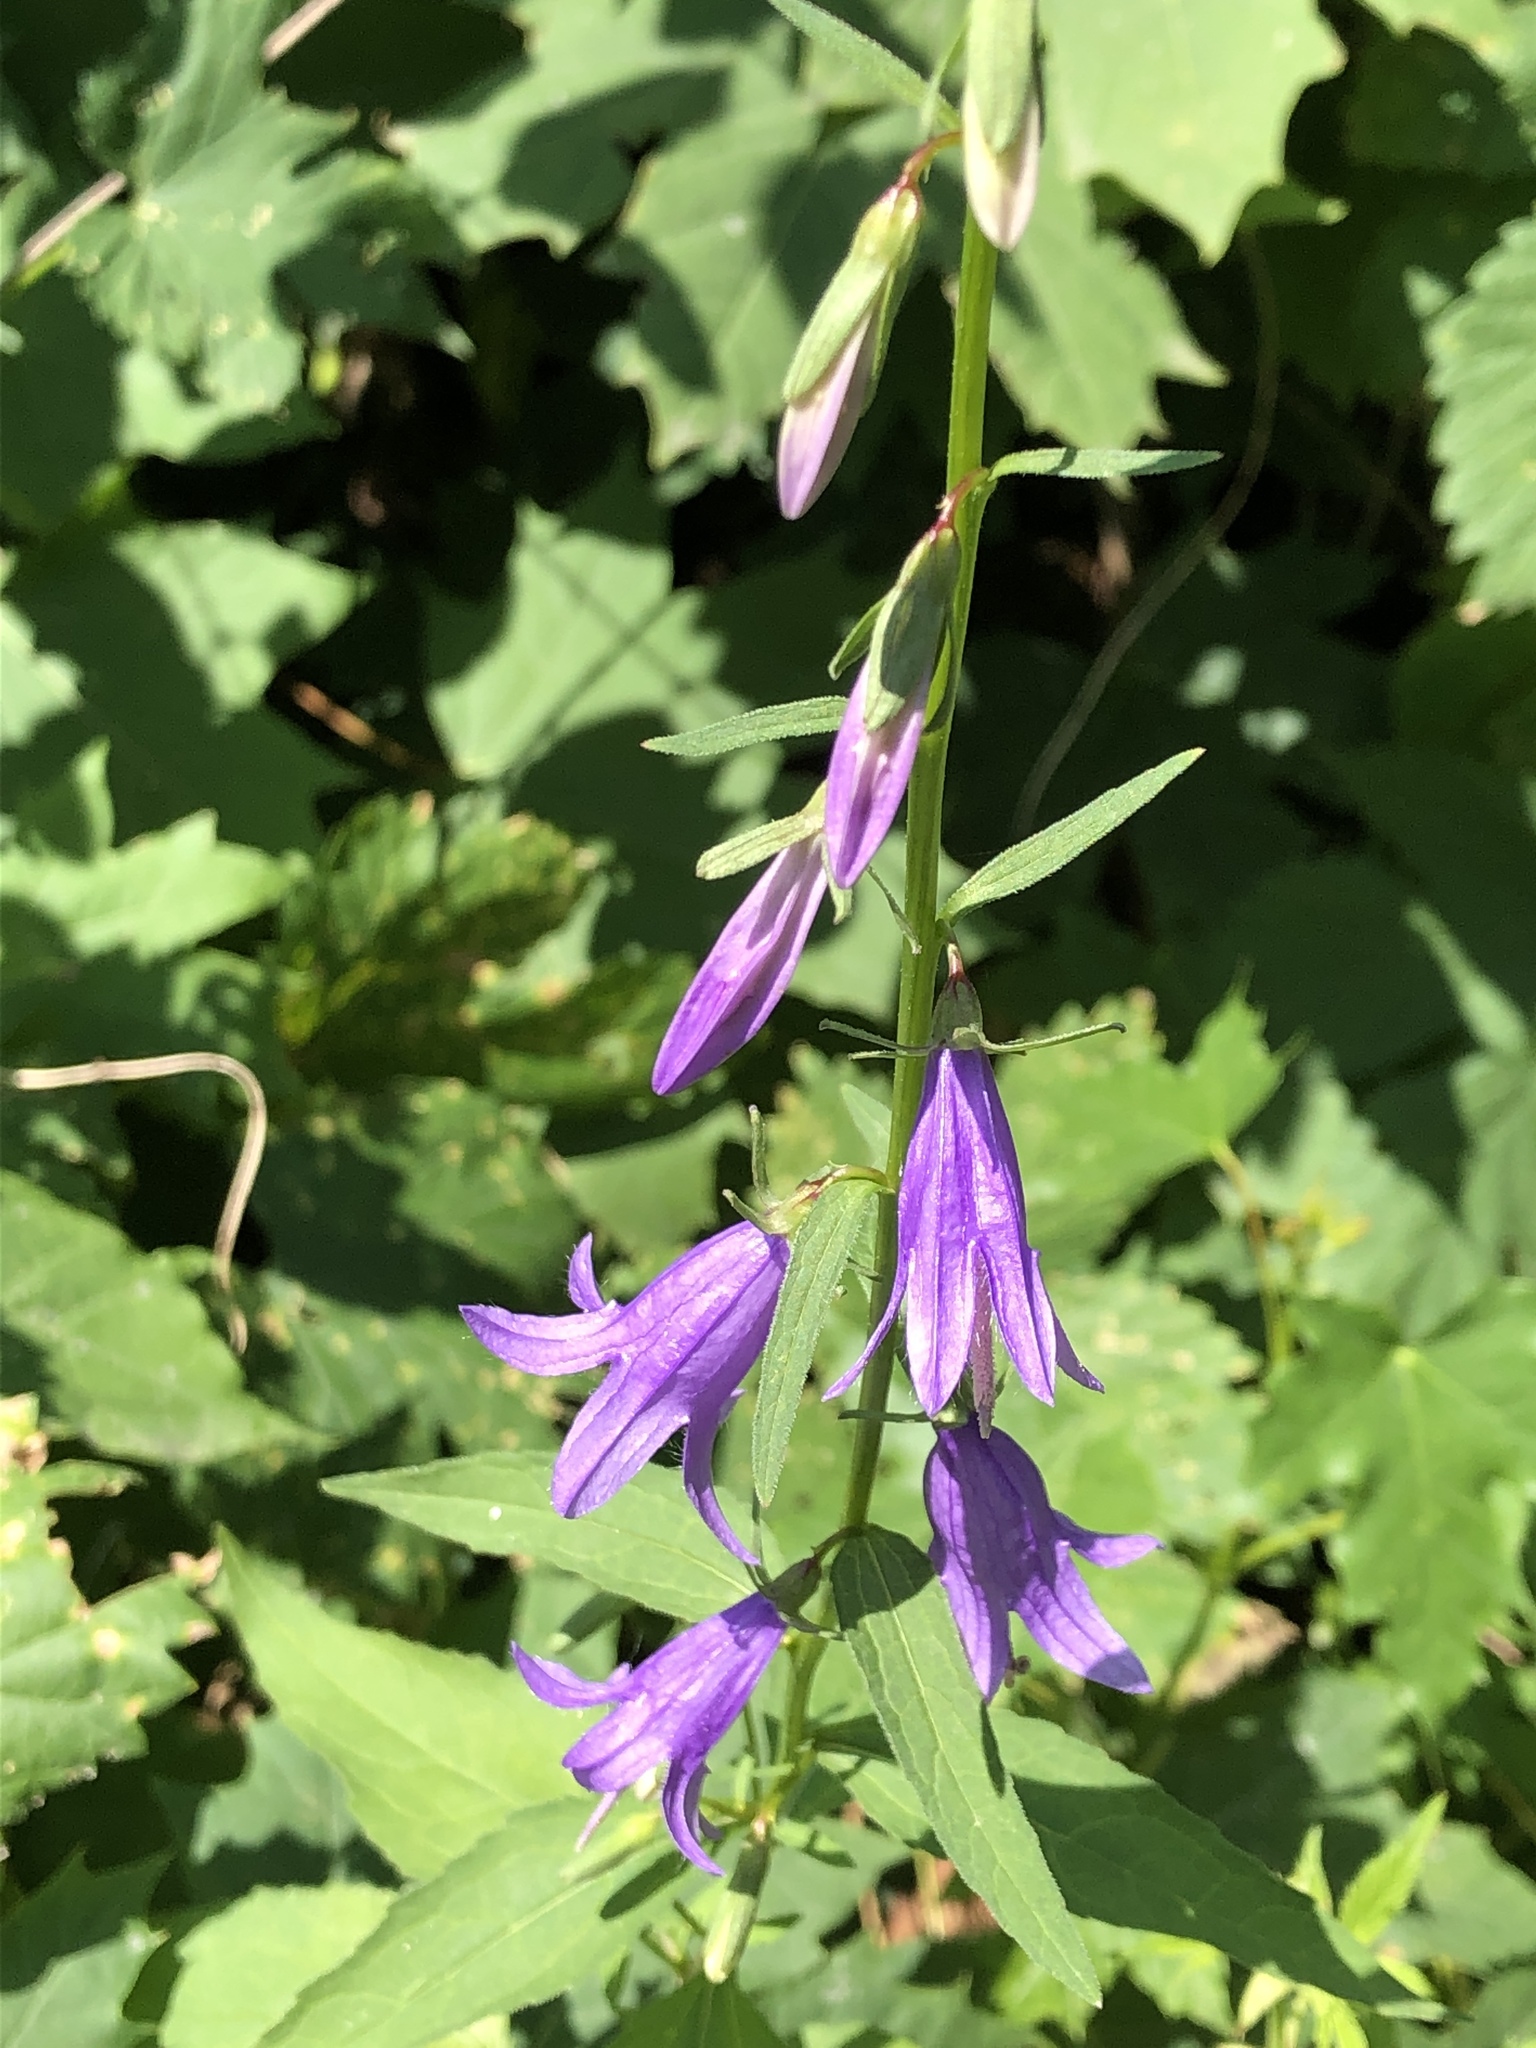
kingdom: Plantae
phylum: Tracheophyta
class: Magnoliopsida
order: Asterales
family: Campanulaceae
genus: Campanula
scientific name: Campanula rapunculoides
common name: Creeping bellflower
